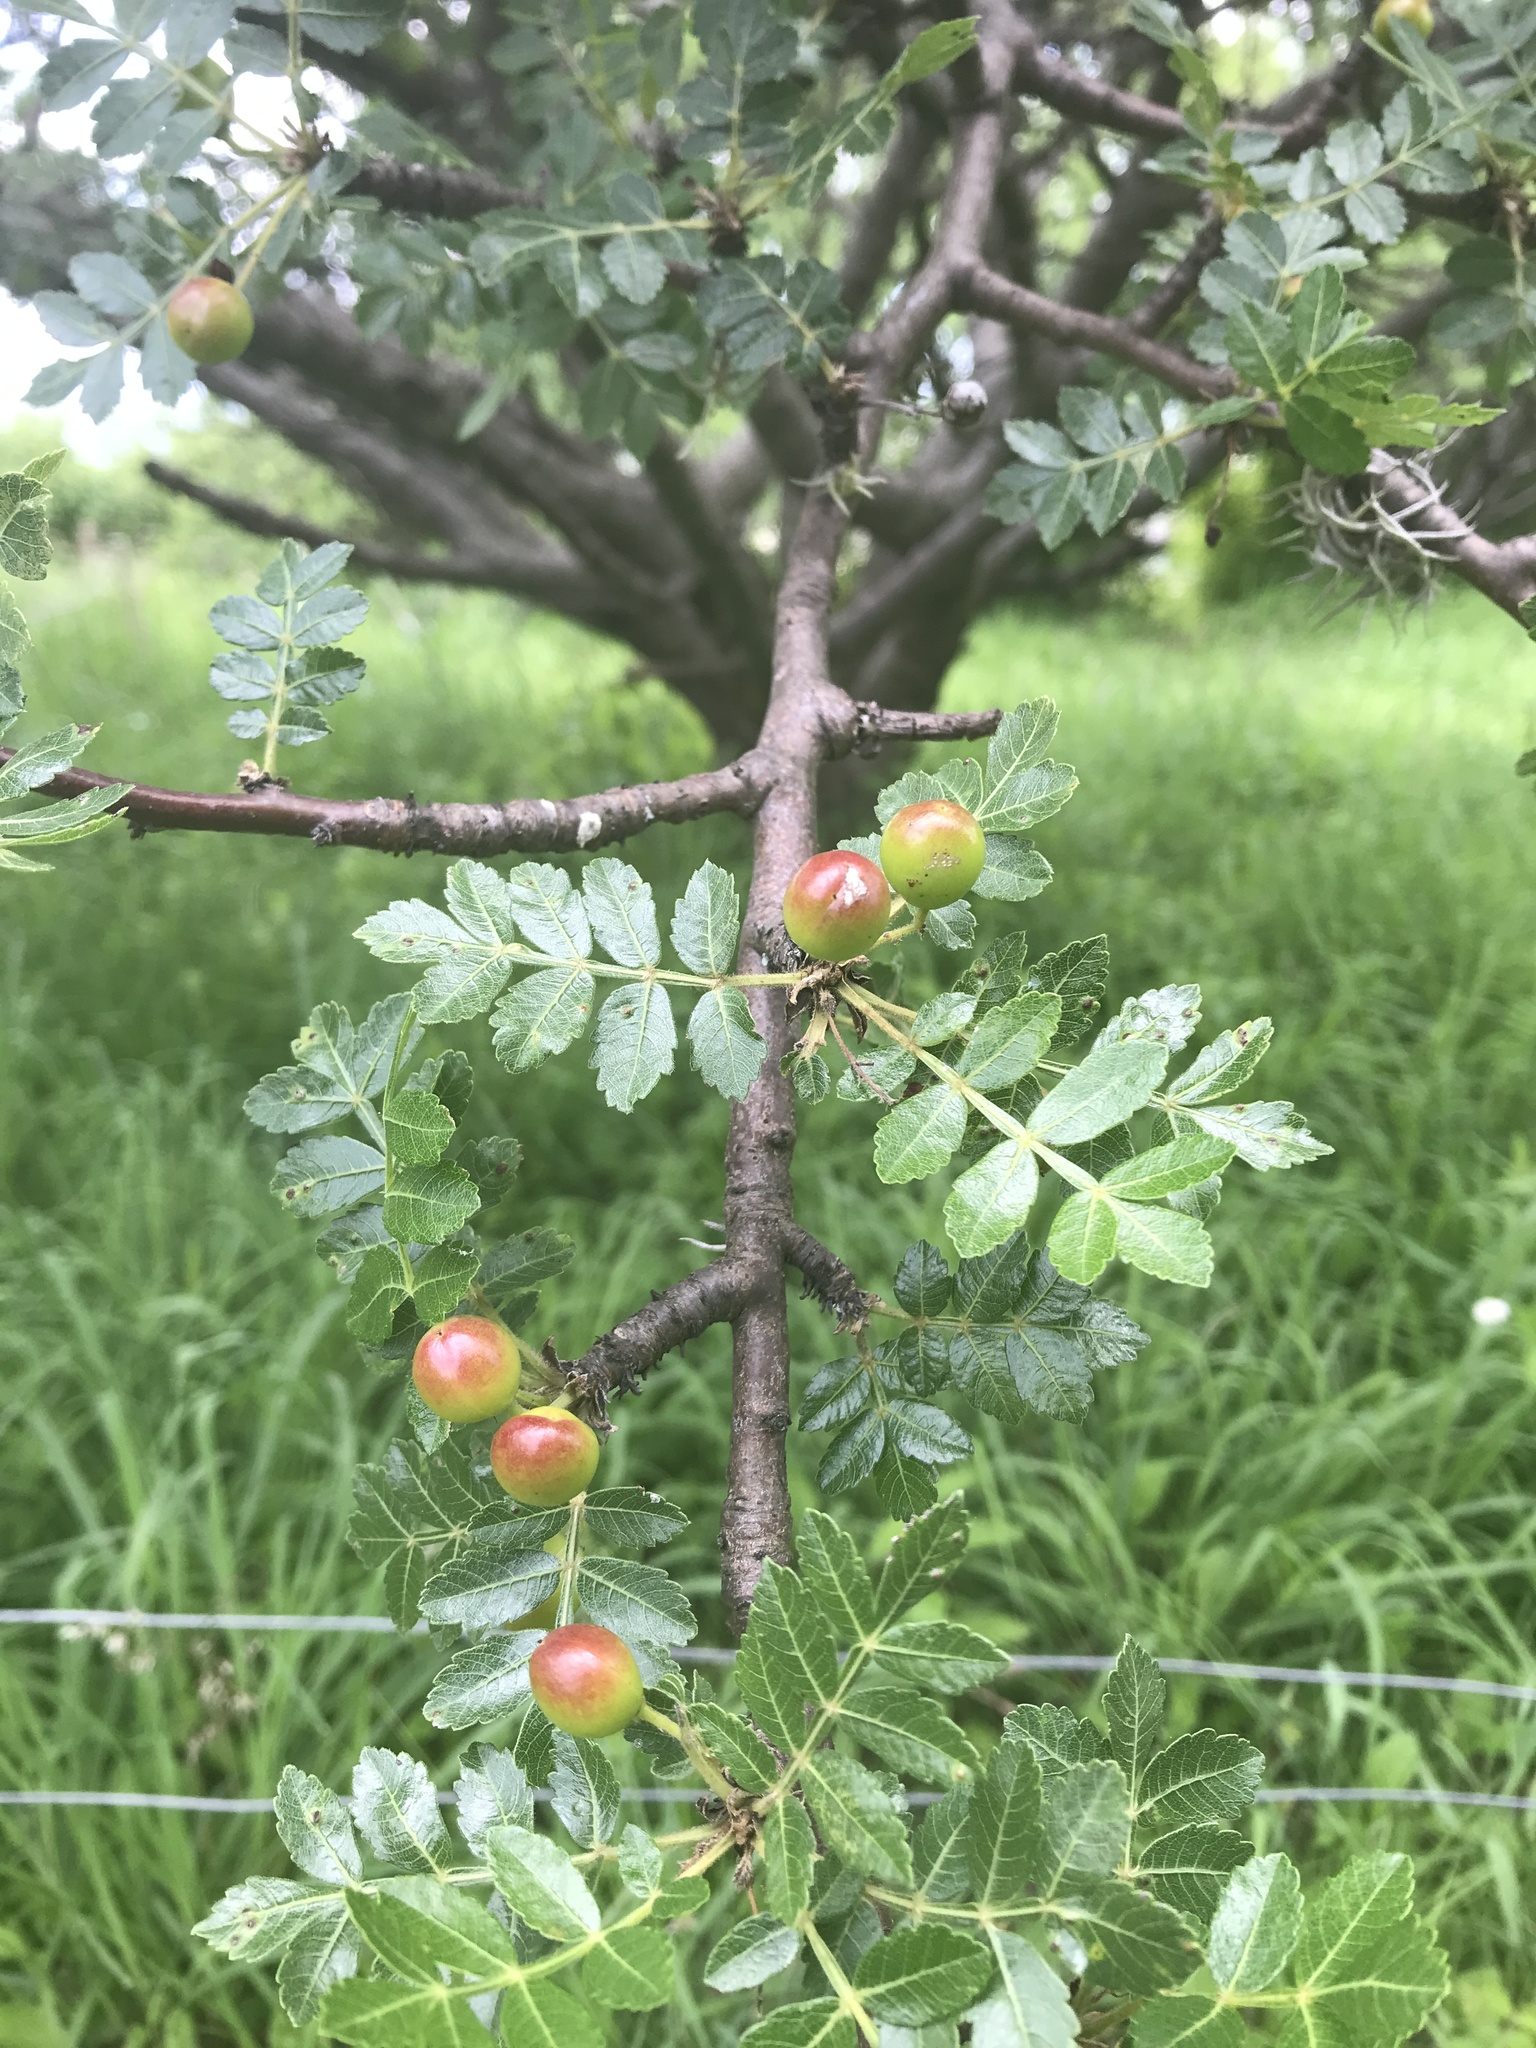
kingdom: Plantae
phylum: Tracheophyta
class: Magnoliopsida
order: Sapindales
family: Burseraceae
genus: Bursera
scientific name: Bursera glabrifolia
